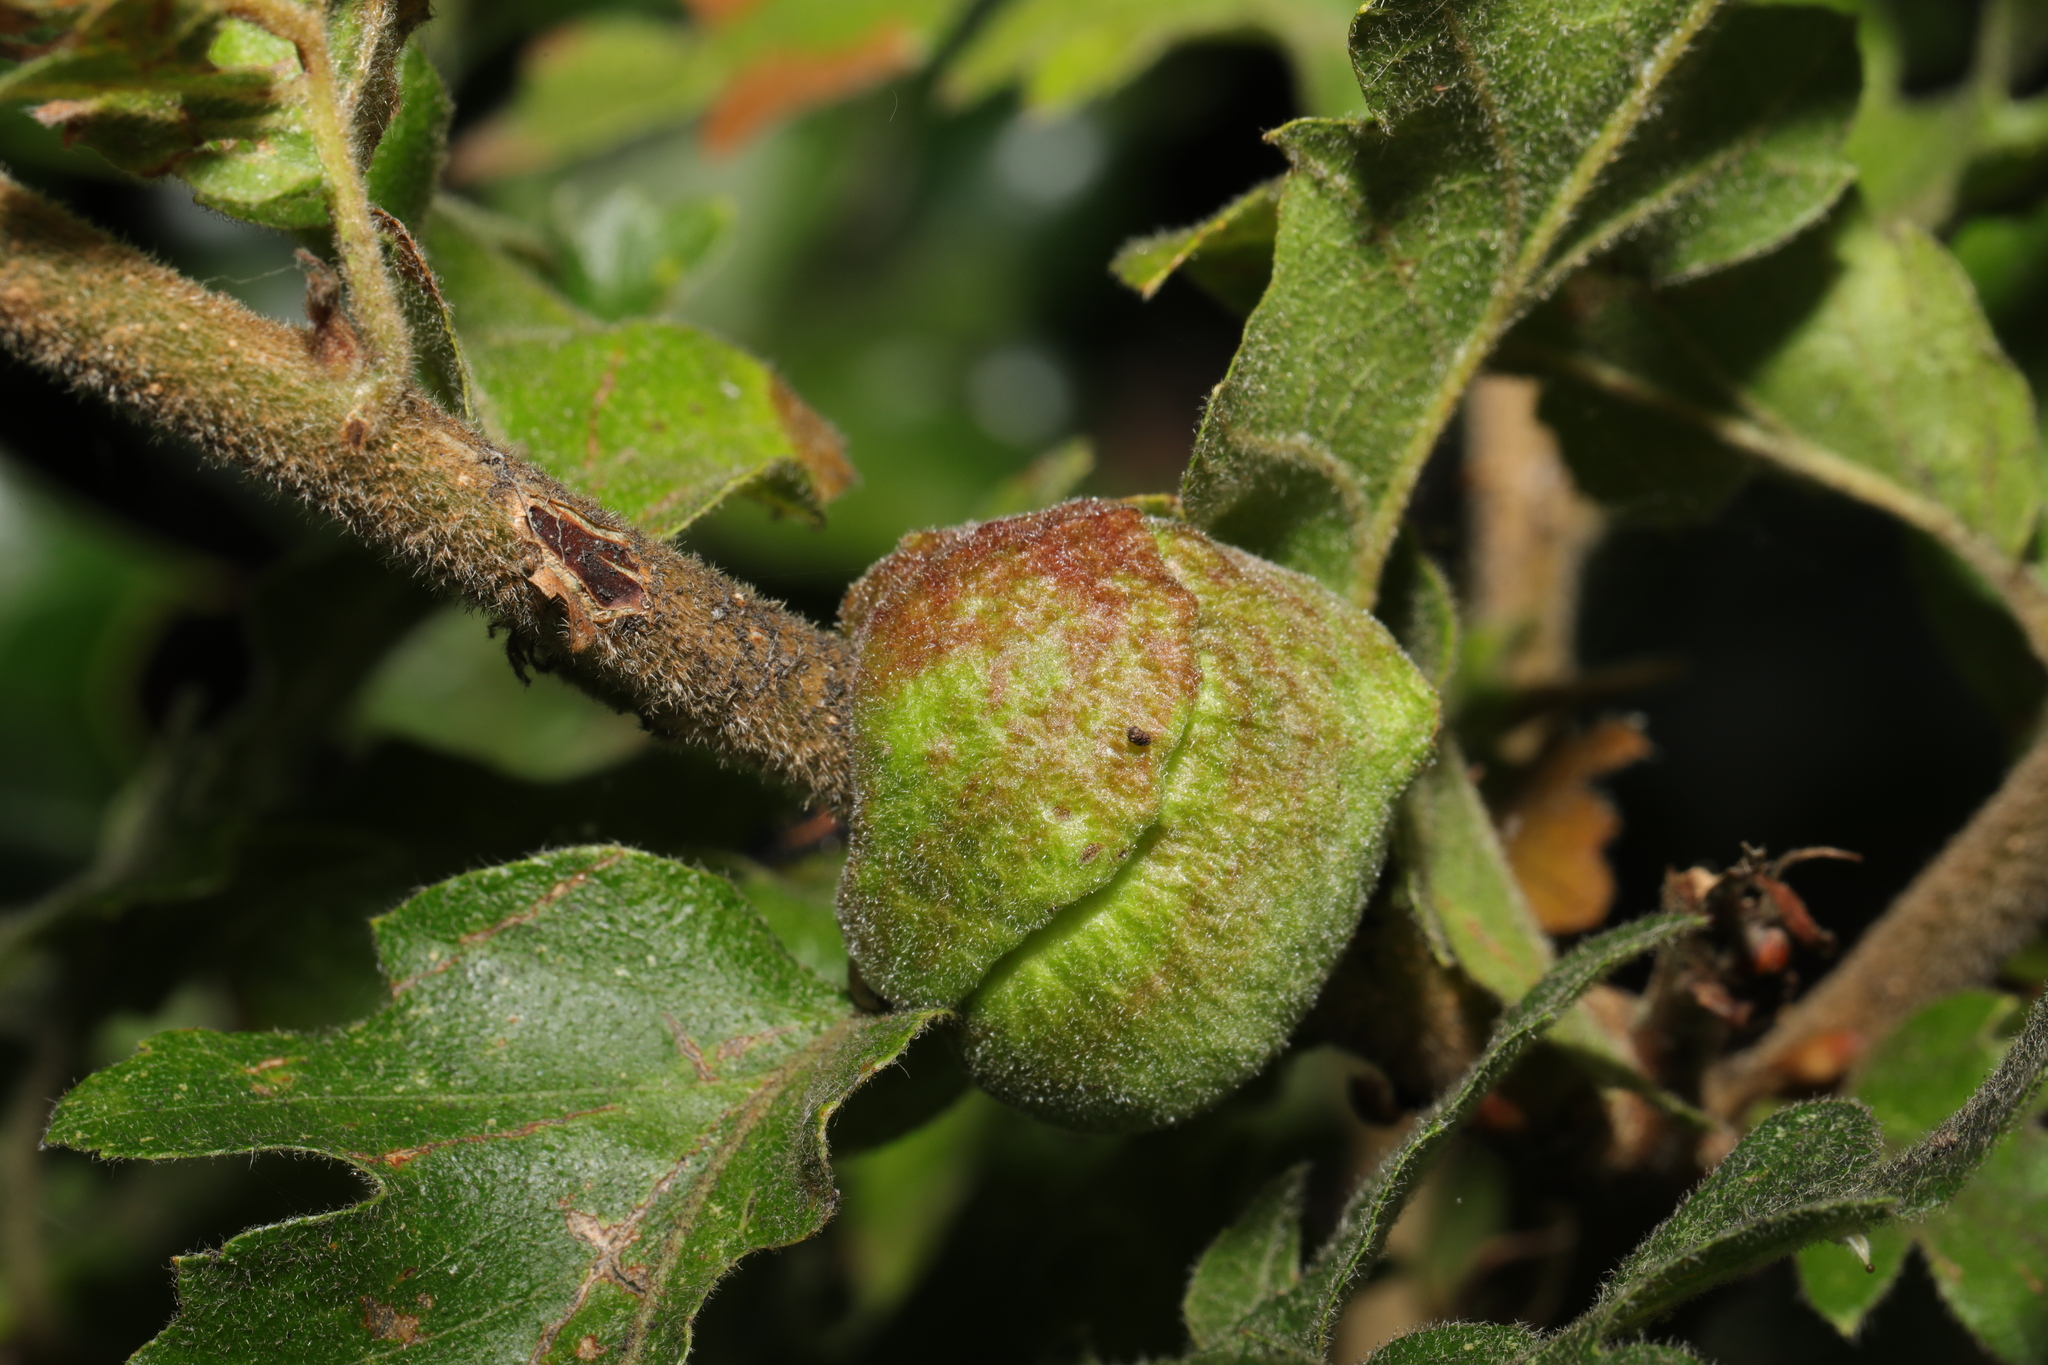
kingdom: Animalia
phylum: Arthropoda
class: Insecta
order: Hymenoptera
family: Cynipidae
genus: Aphelonyx
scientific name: Aphelonyx cerricola
